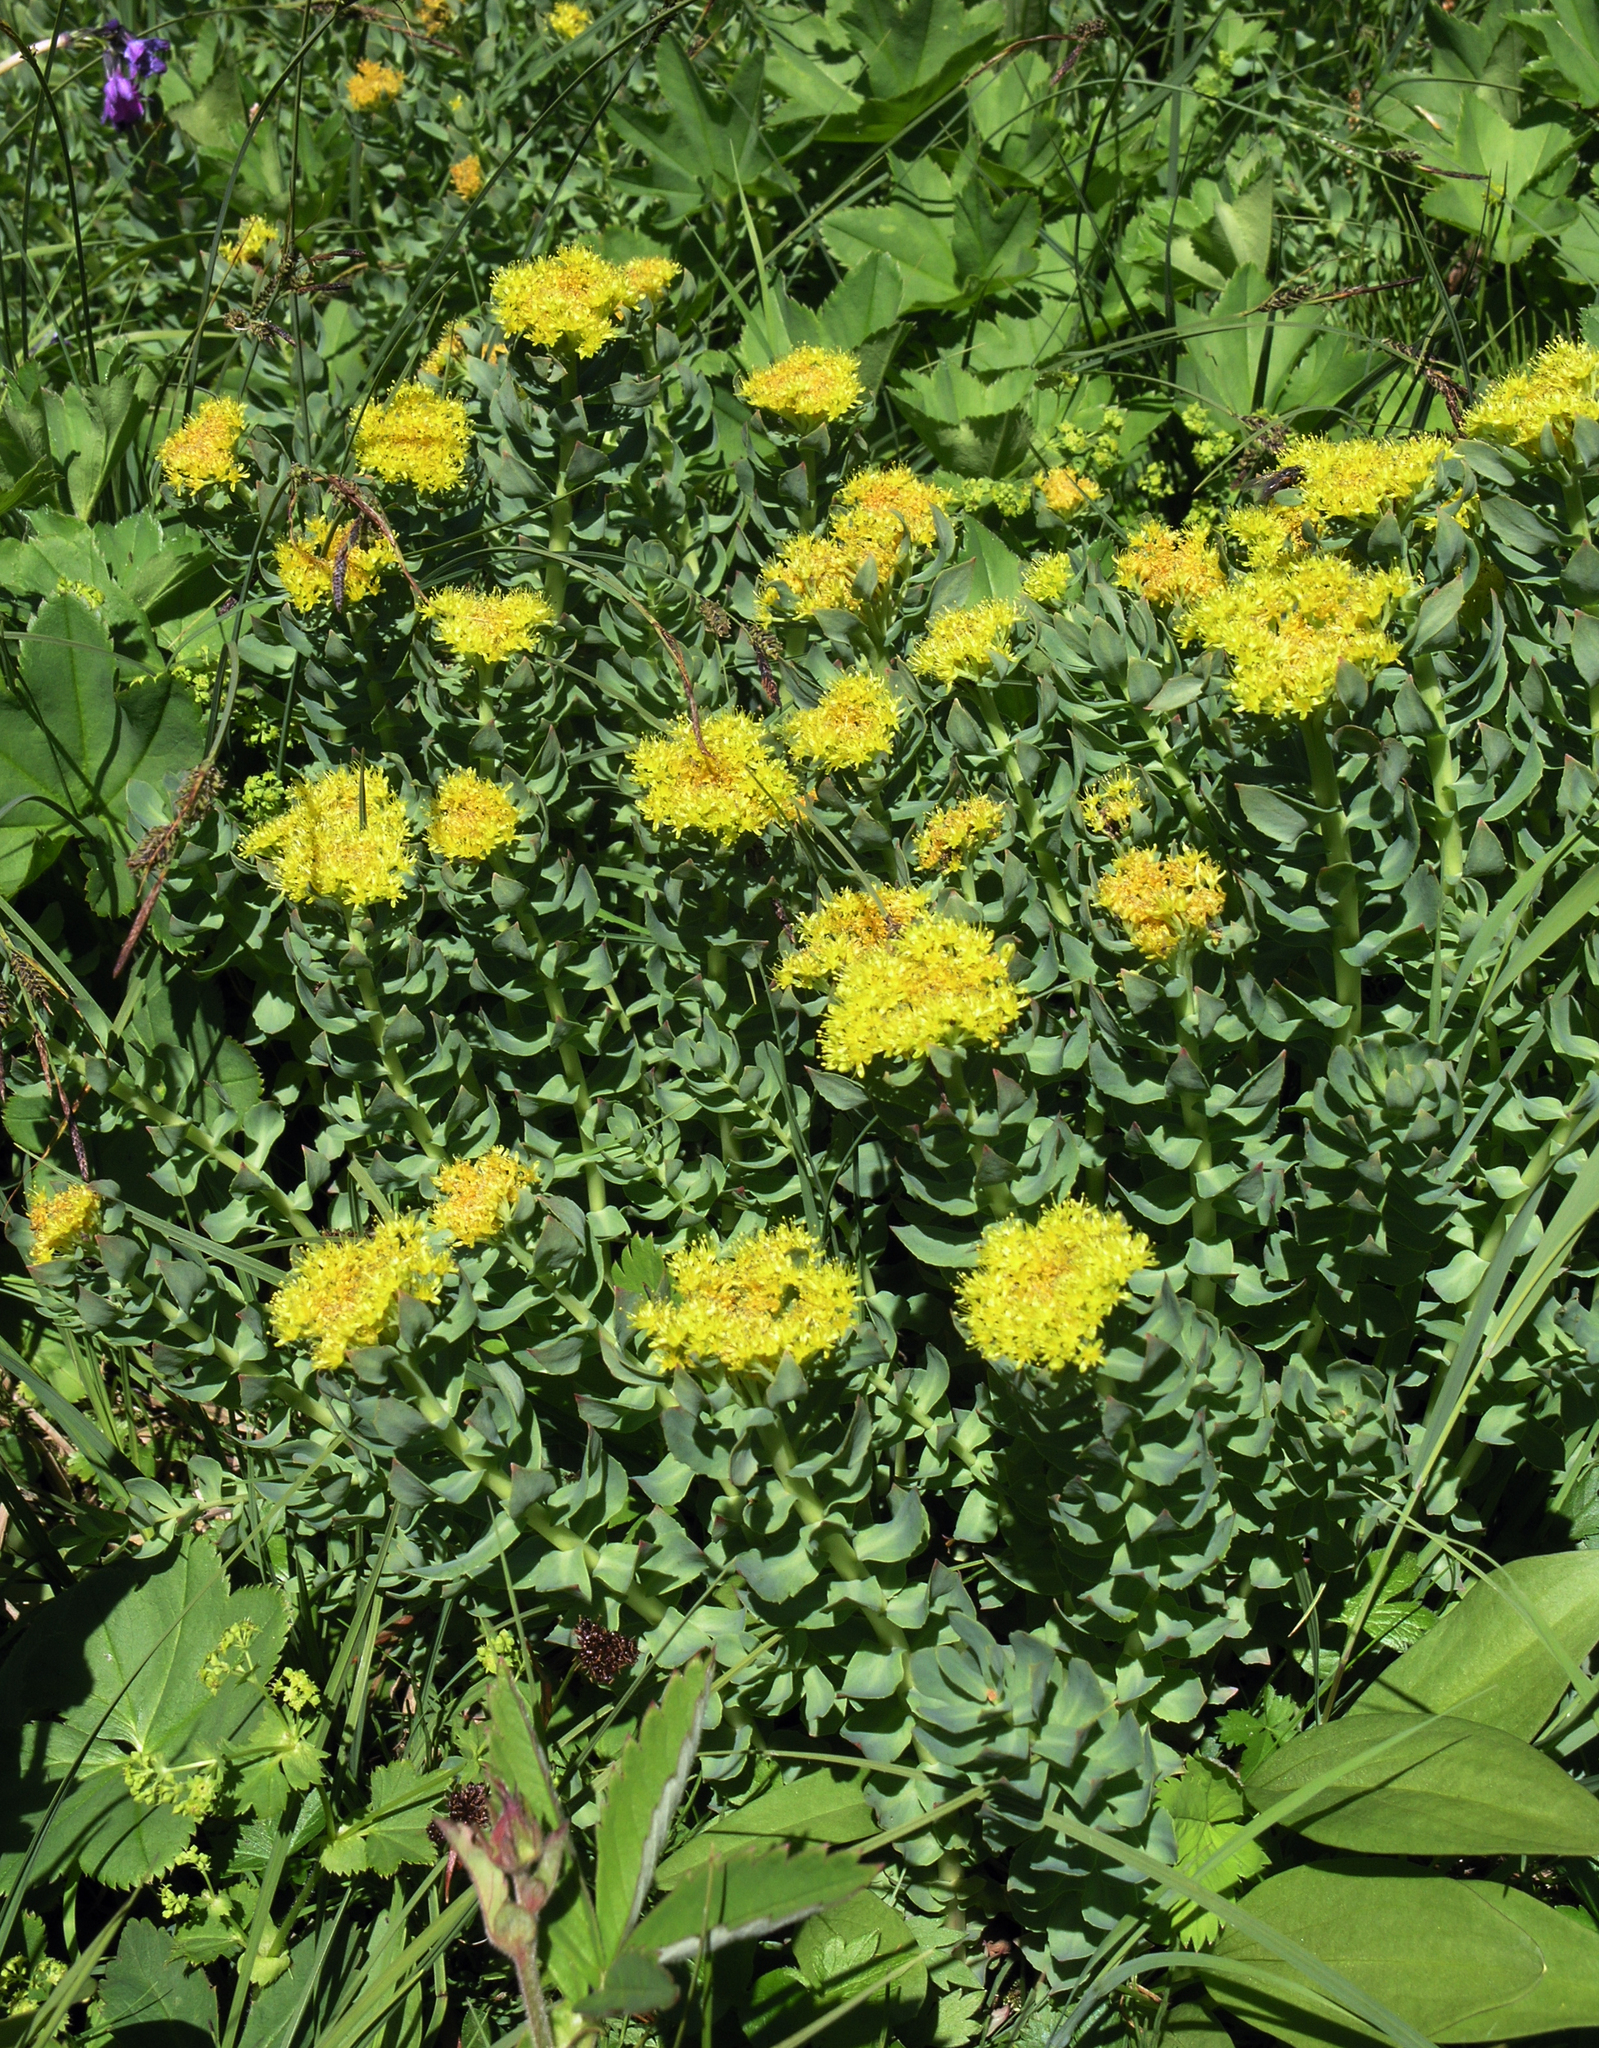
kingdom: Plantae
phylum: Tracheophyta
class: Magnoliopsida
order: Saxifragales
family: Crassulaceae
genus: Rhodiola
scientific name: Rhodiola rosea
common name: Roseroot
